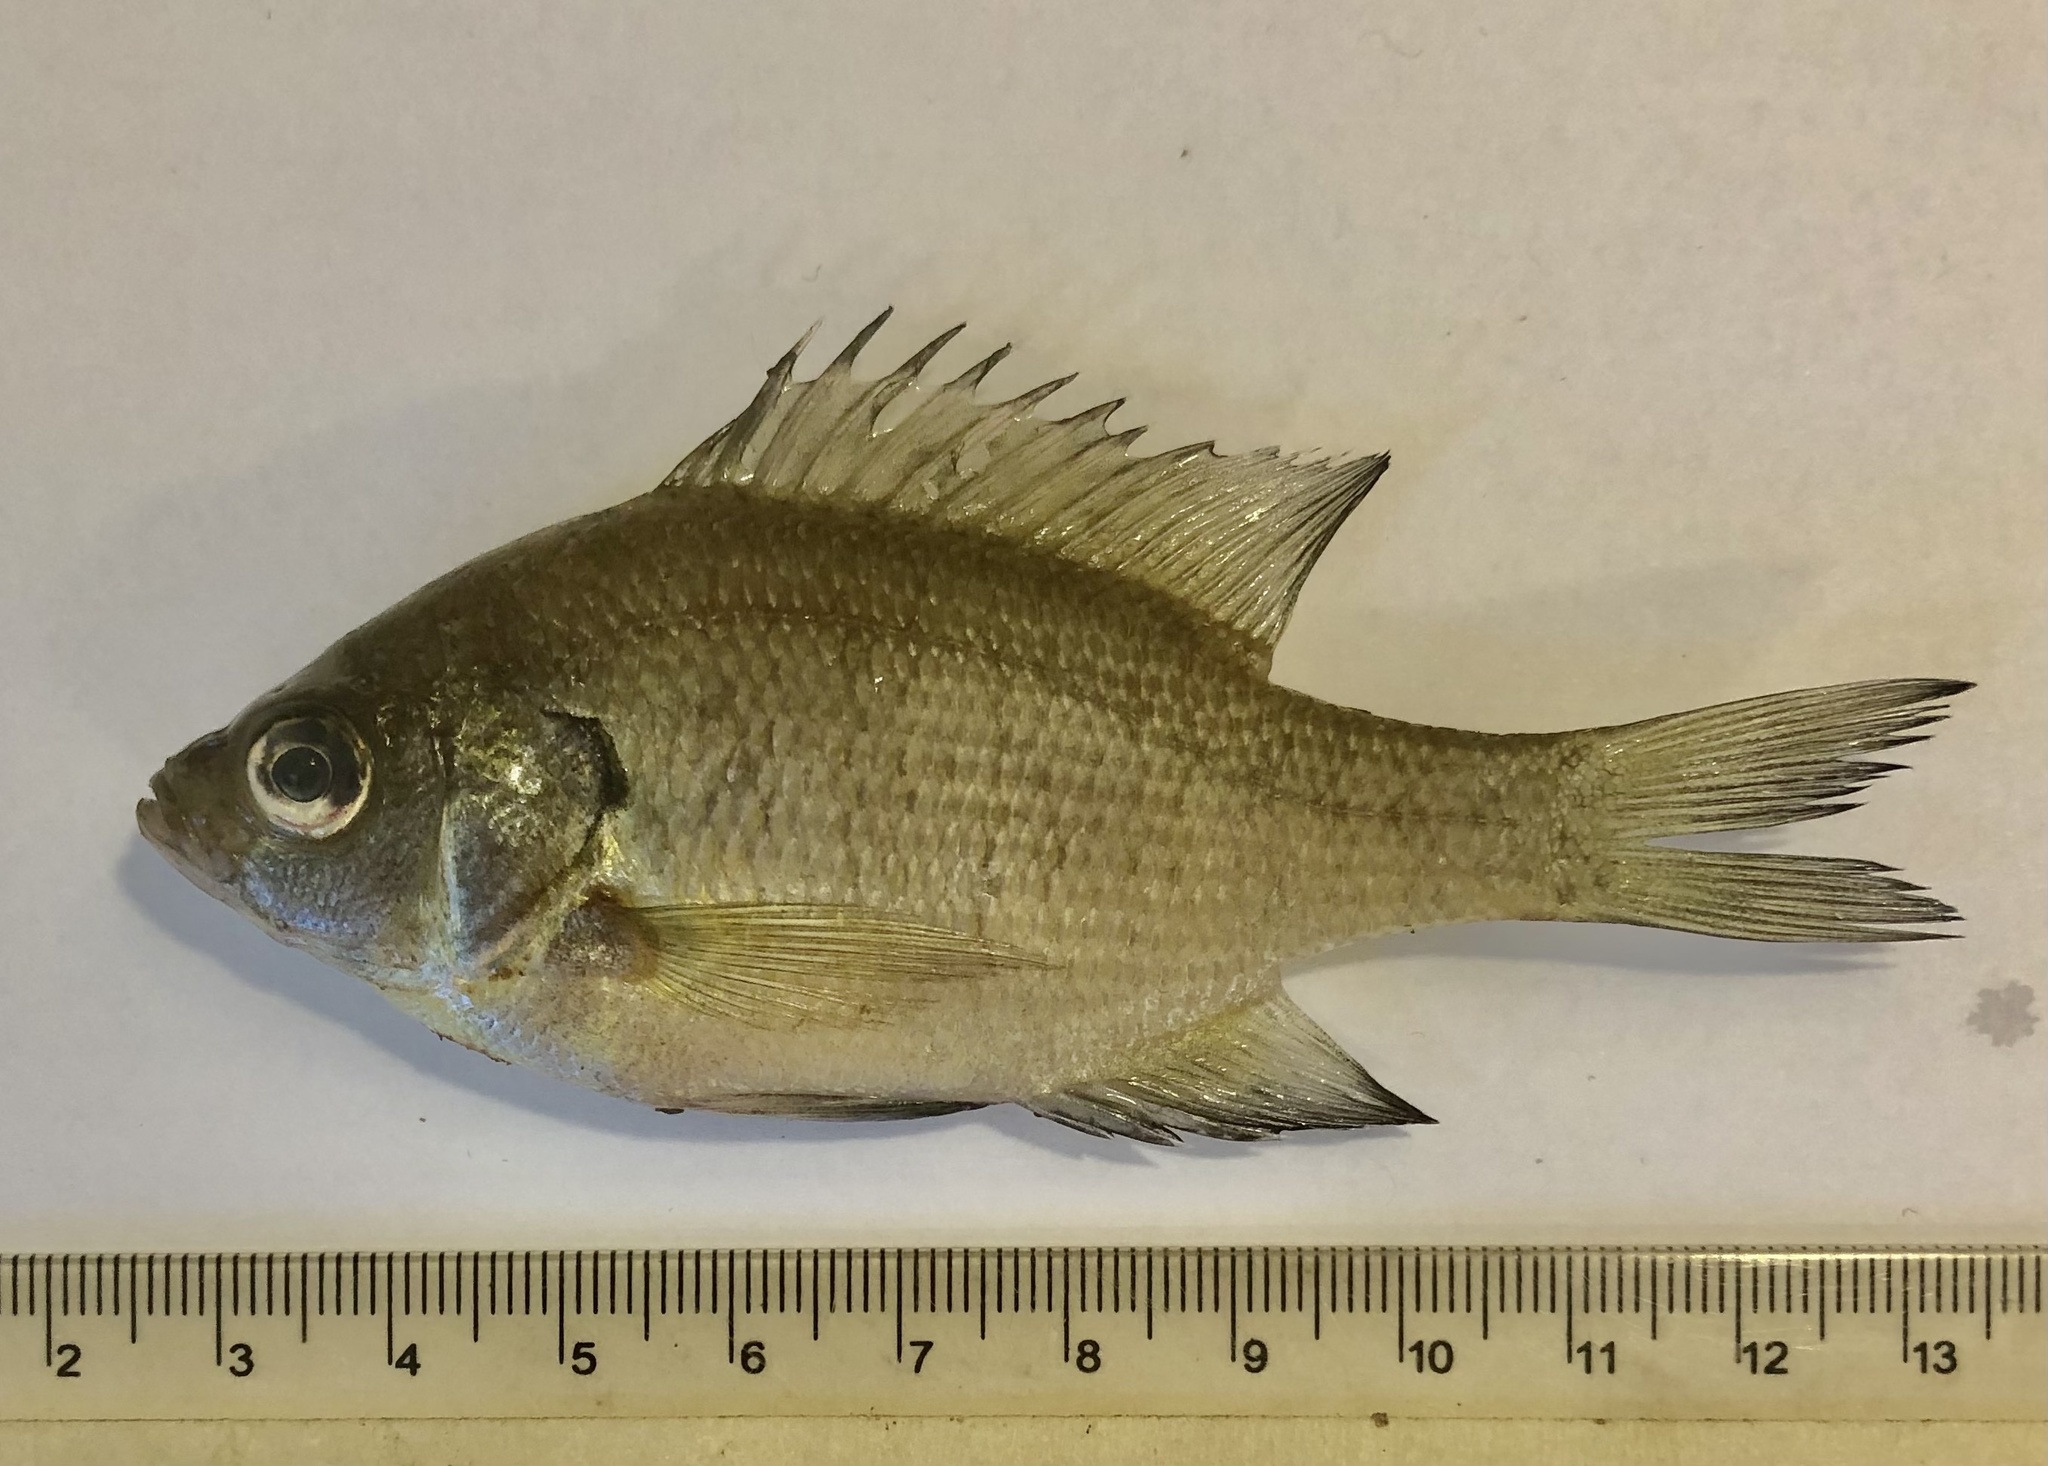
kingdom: Animalia
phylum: Chordata
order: Perciformes
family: Centrarchidae
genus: Lepomis
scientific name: Lepomis macrochirus
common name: Bluegill
